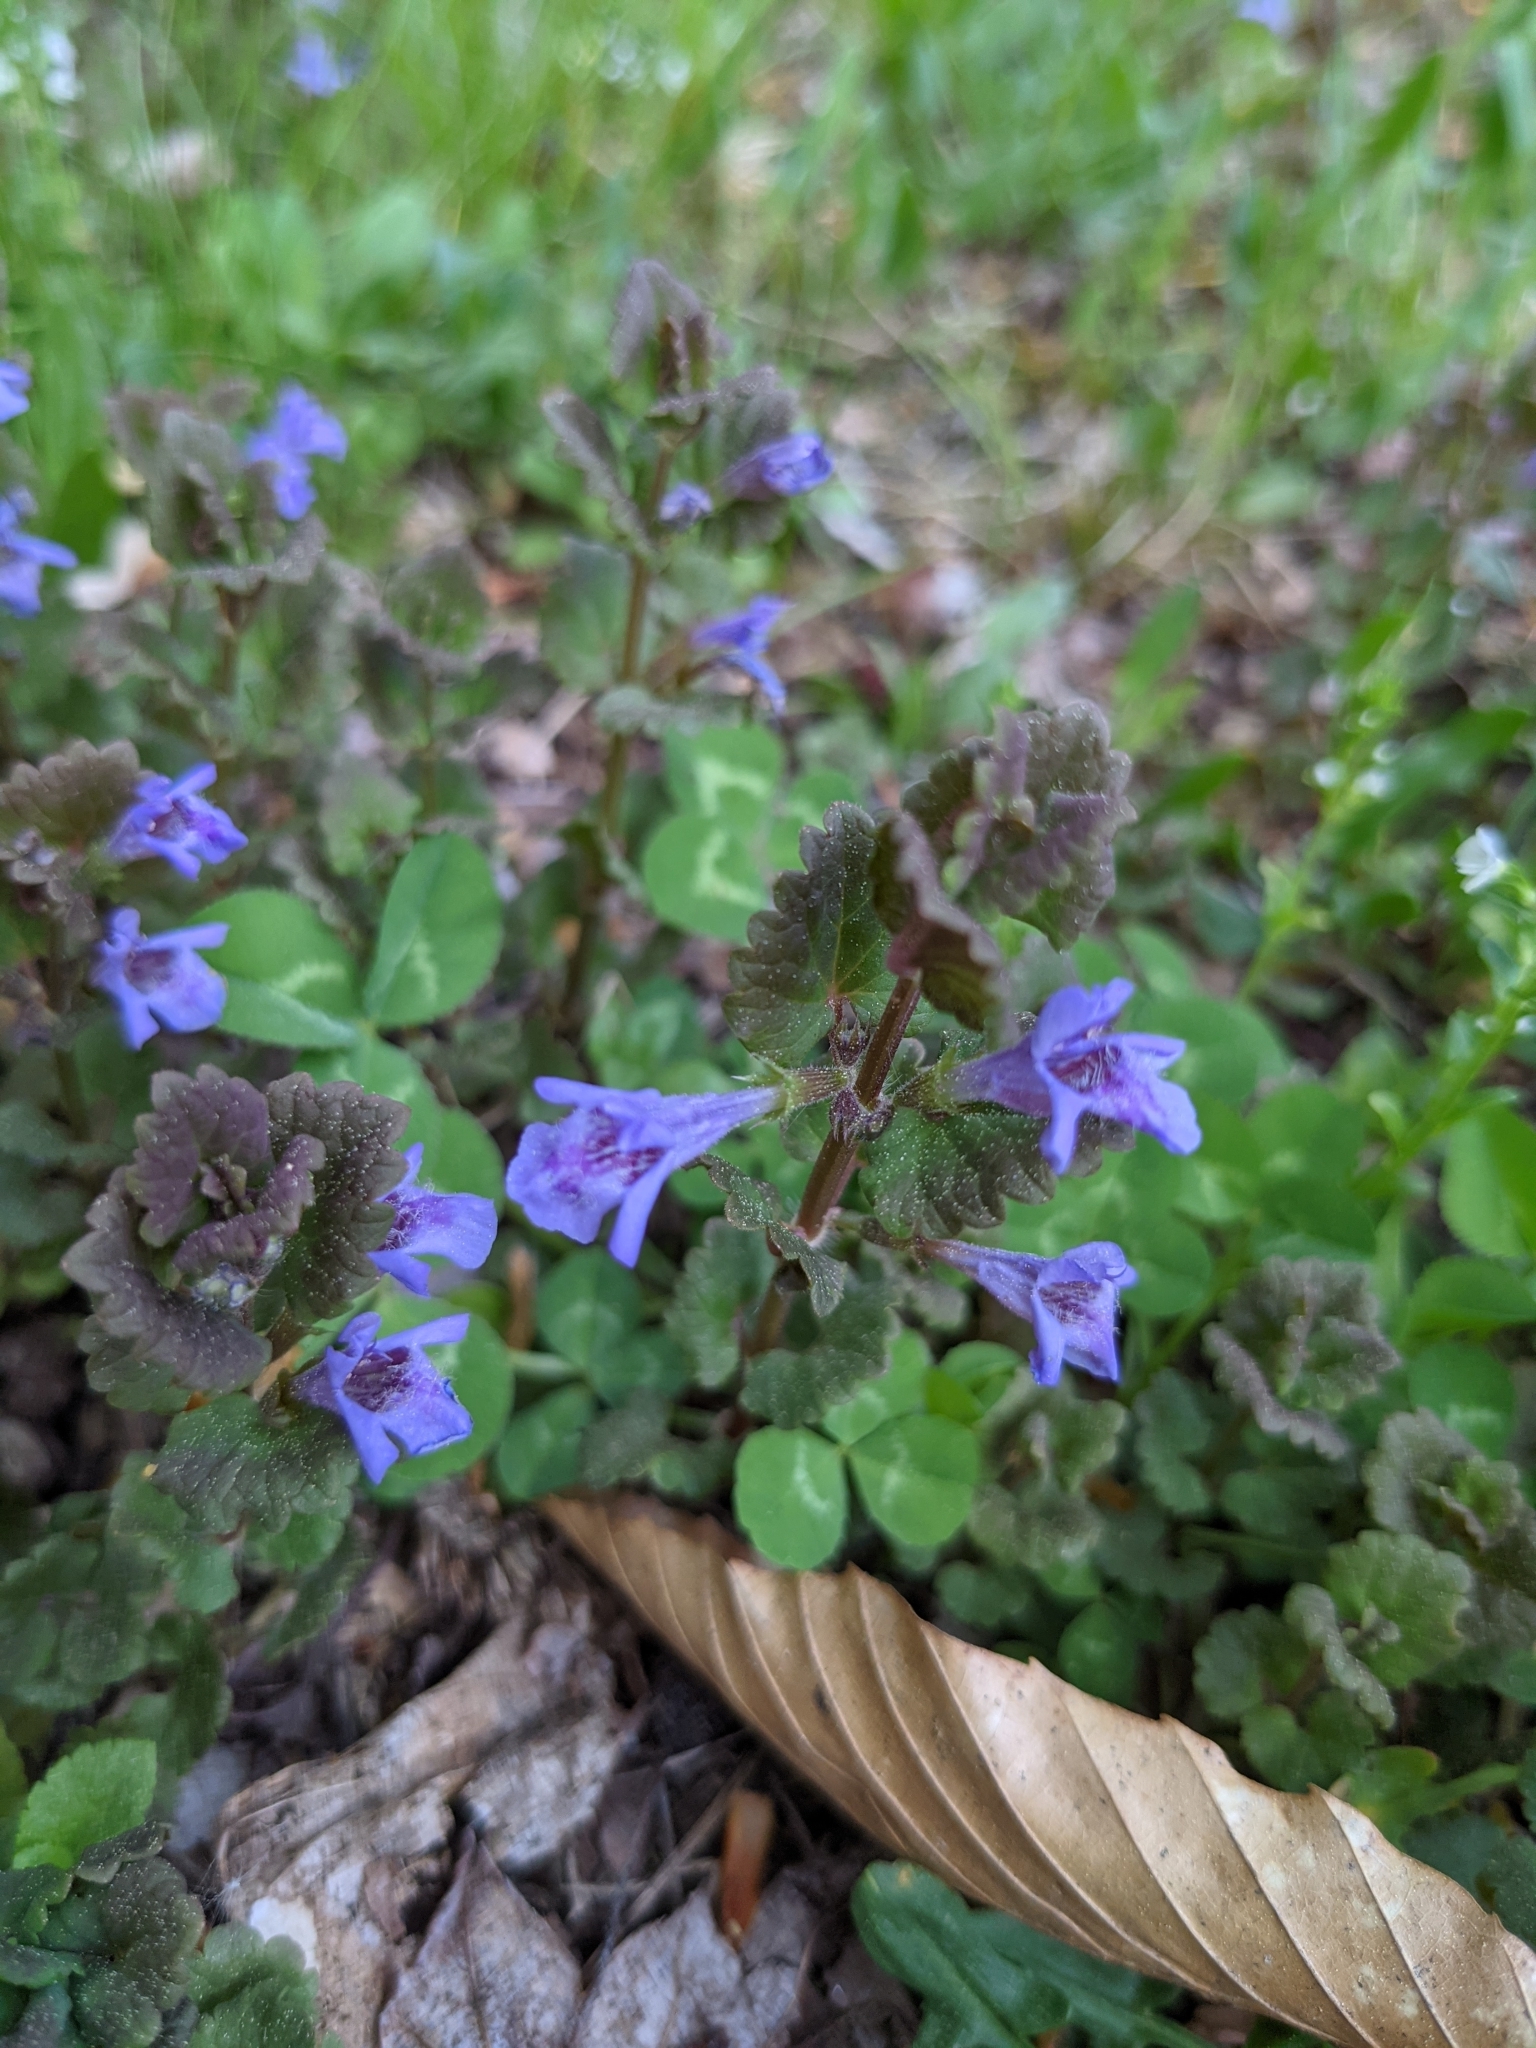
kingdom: Plantae
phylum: Tracheophyta
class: Magnoliopsida
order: Lamiales
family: Lamiaceae
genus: Glechoma
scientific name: Glechoma hederacea
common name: Ground ivy
